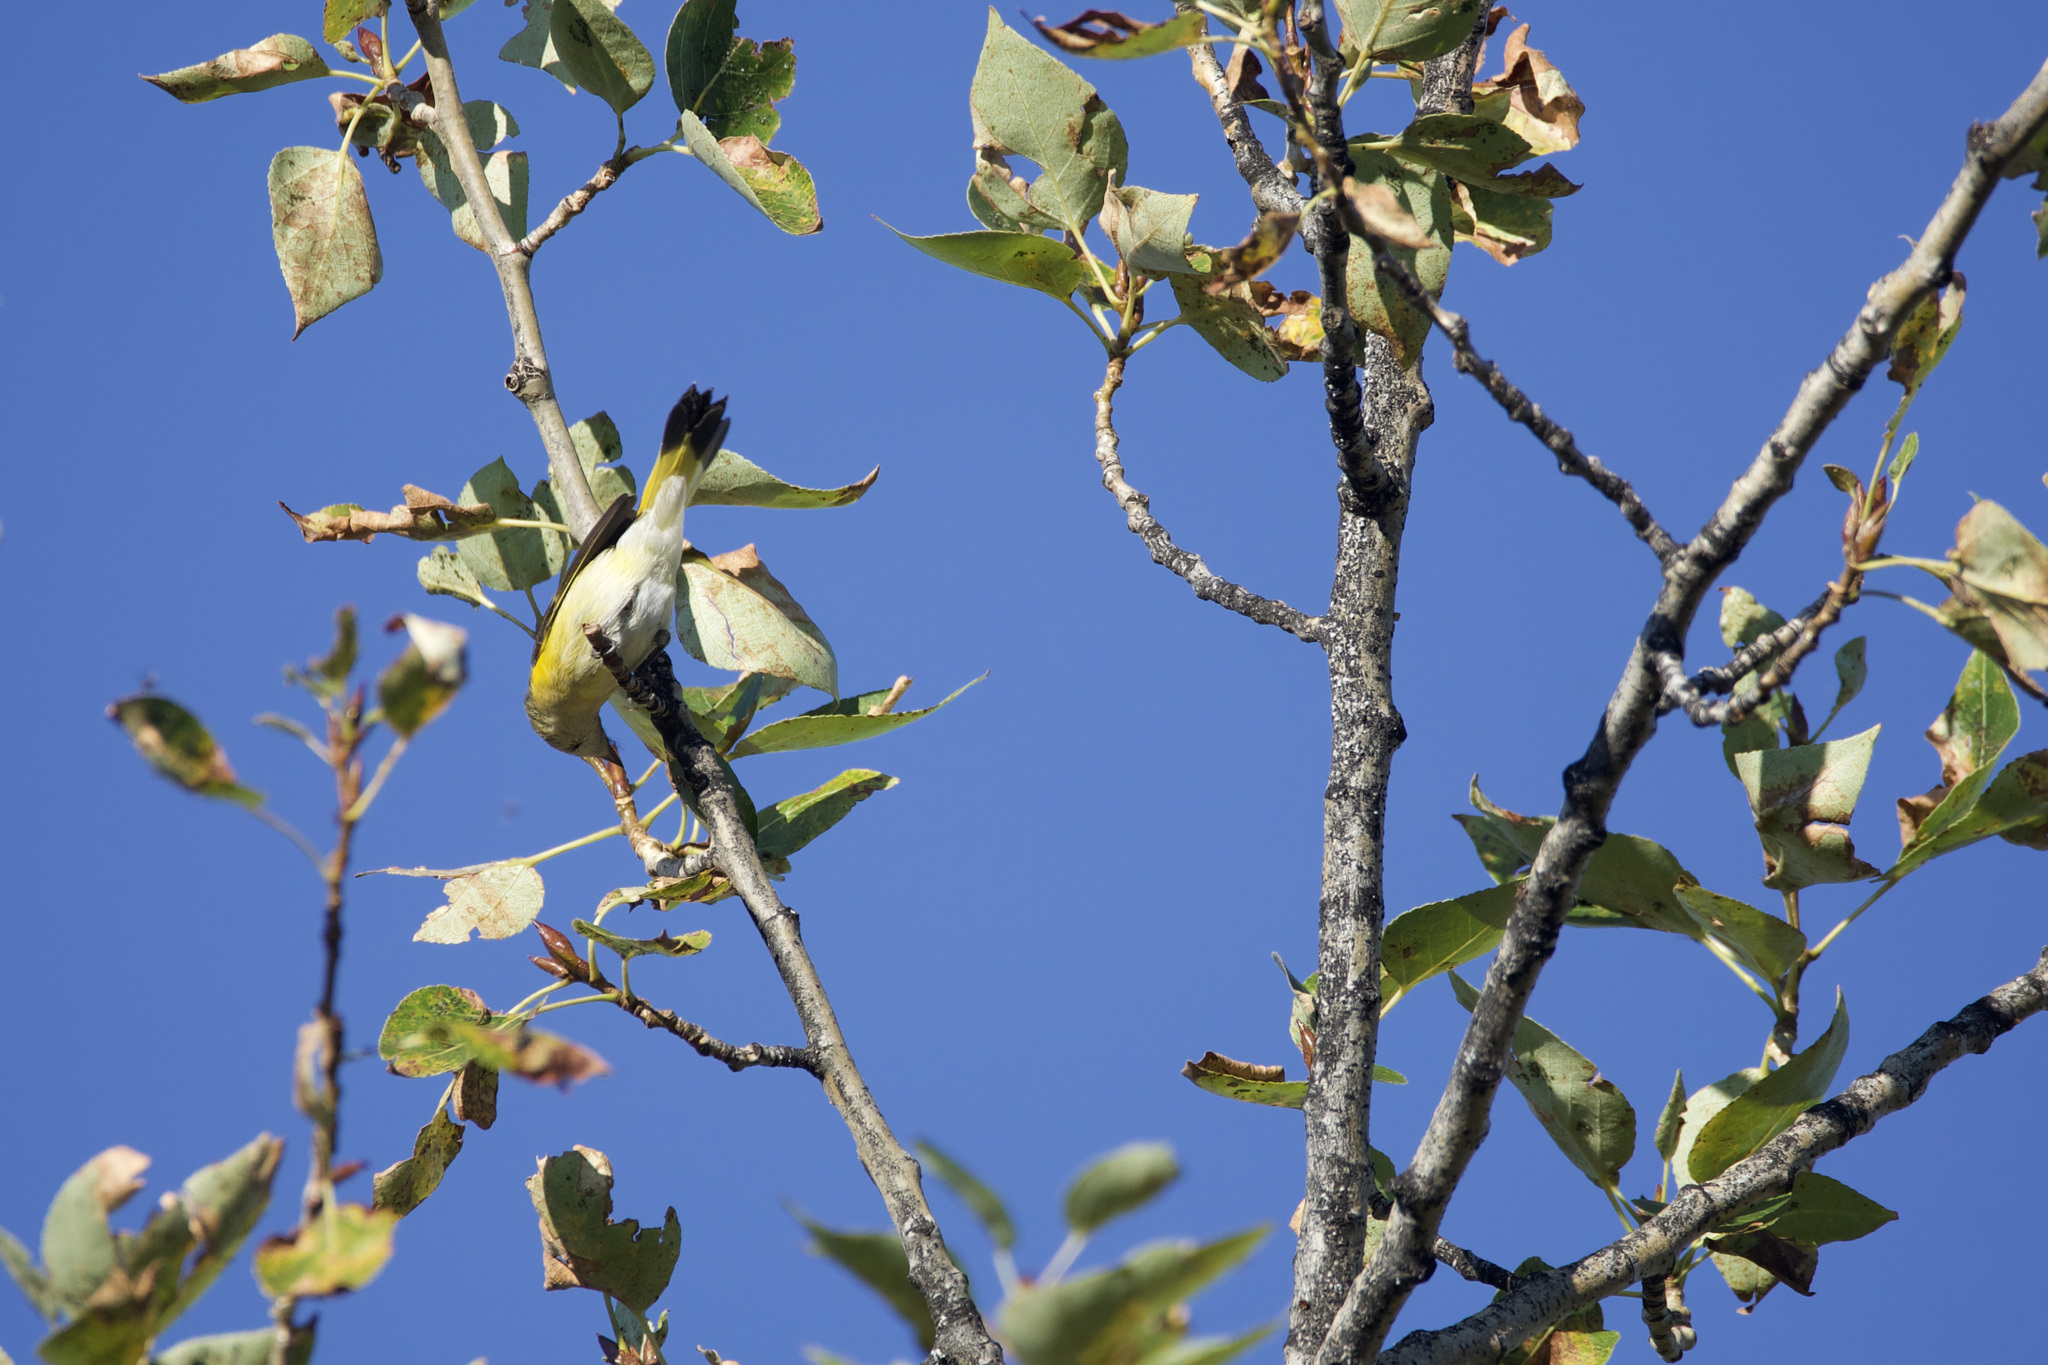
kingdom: Animalia
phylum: Chordata
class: Aves
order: Passeriformes
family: Parulidae
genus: Setophaga
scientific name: Setophaga ruticilla
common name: American redstart
